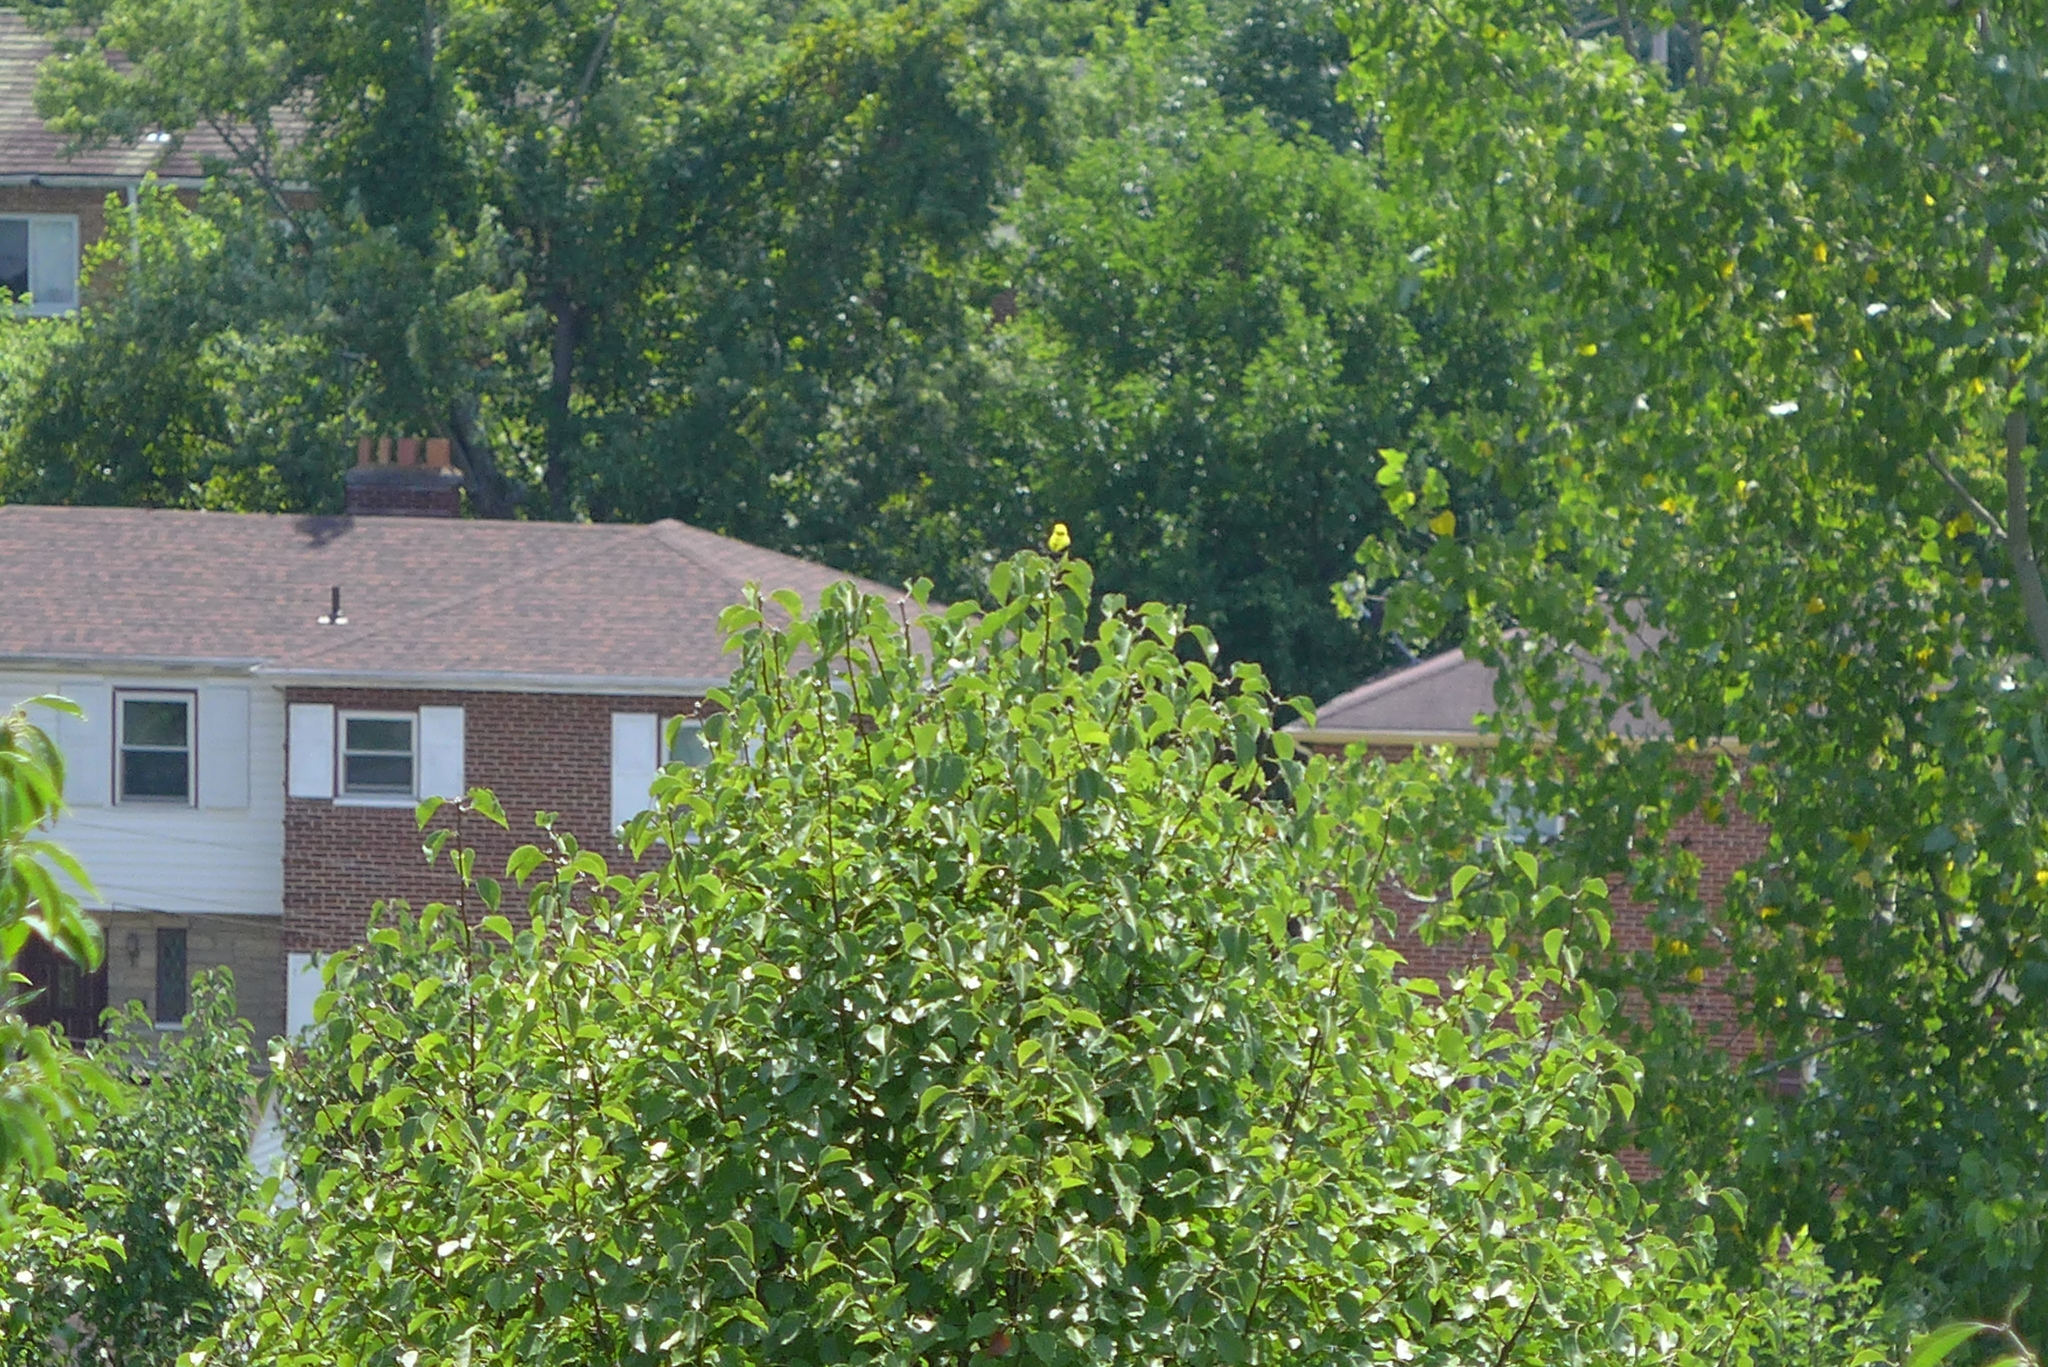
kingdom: Animalia
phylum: Chordata
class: Aves
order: Passeriformes
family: Fringillidae
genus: Spinus
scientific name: Spinus tristis
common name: American goldfinch
